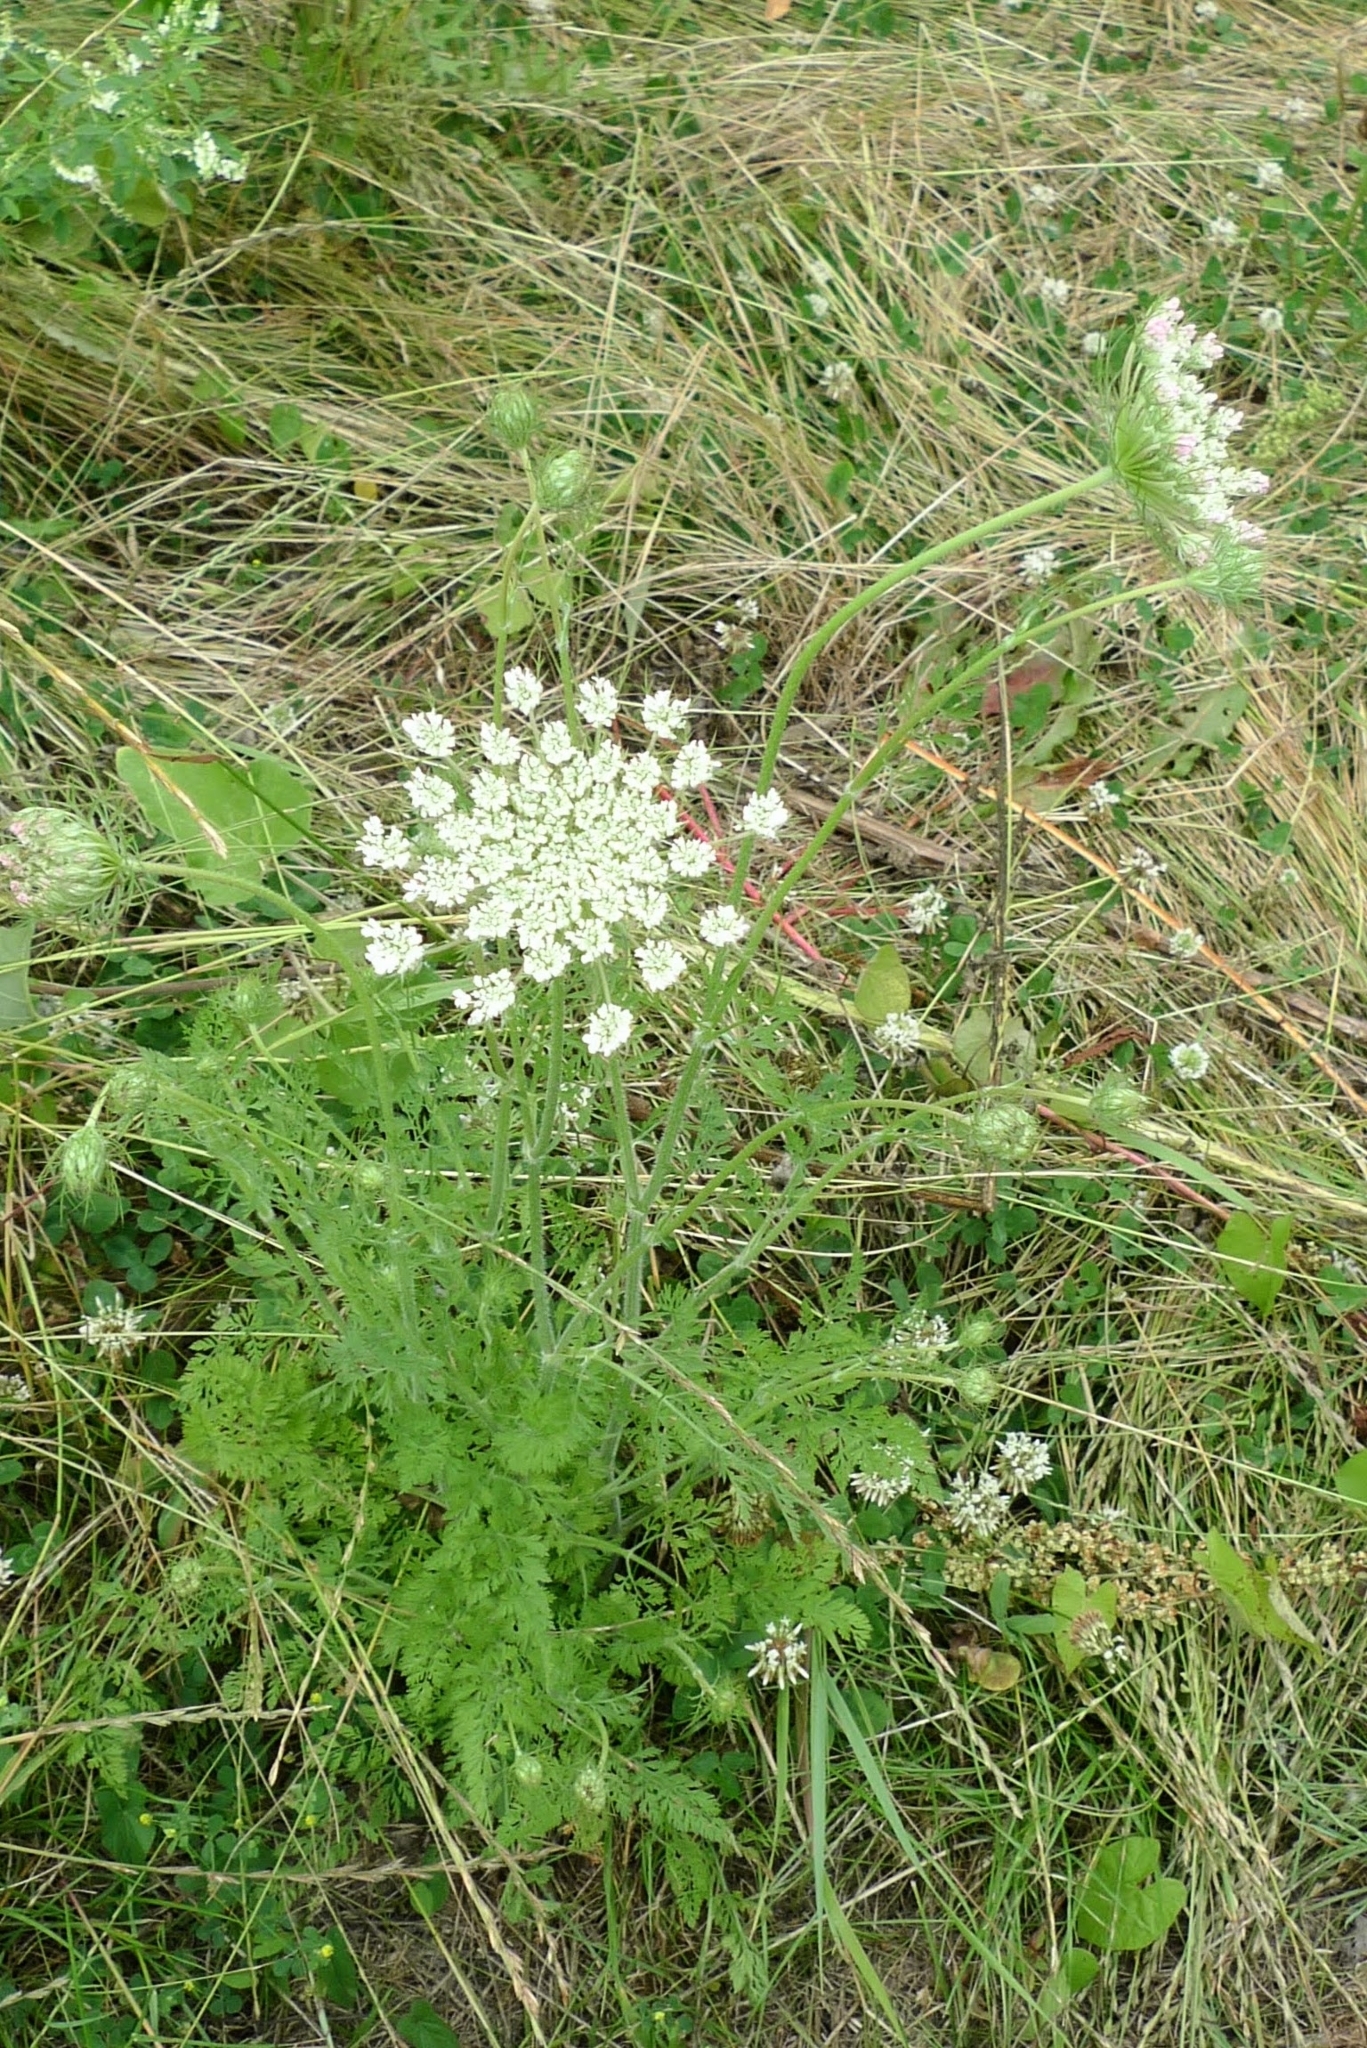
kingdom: Plantae
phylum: Tracheophyta
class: Magnoliopsida
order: Apiales
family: Apiaceae
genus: Daucus
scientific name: Daucus carota
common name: Wild carrot
